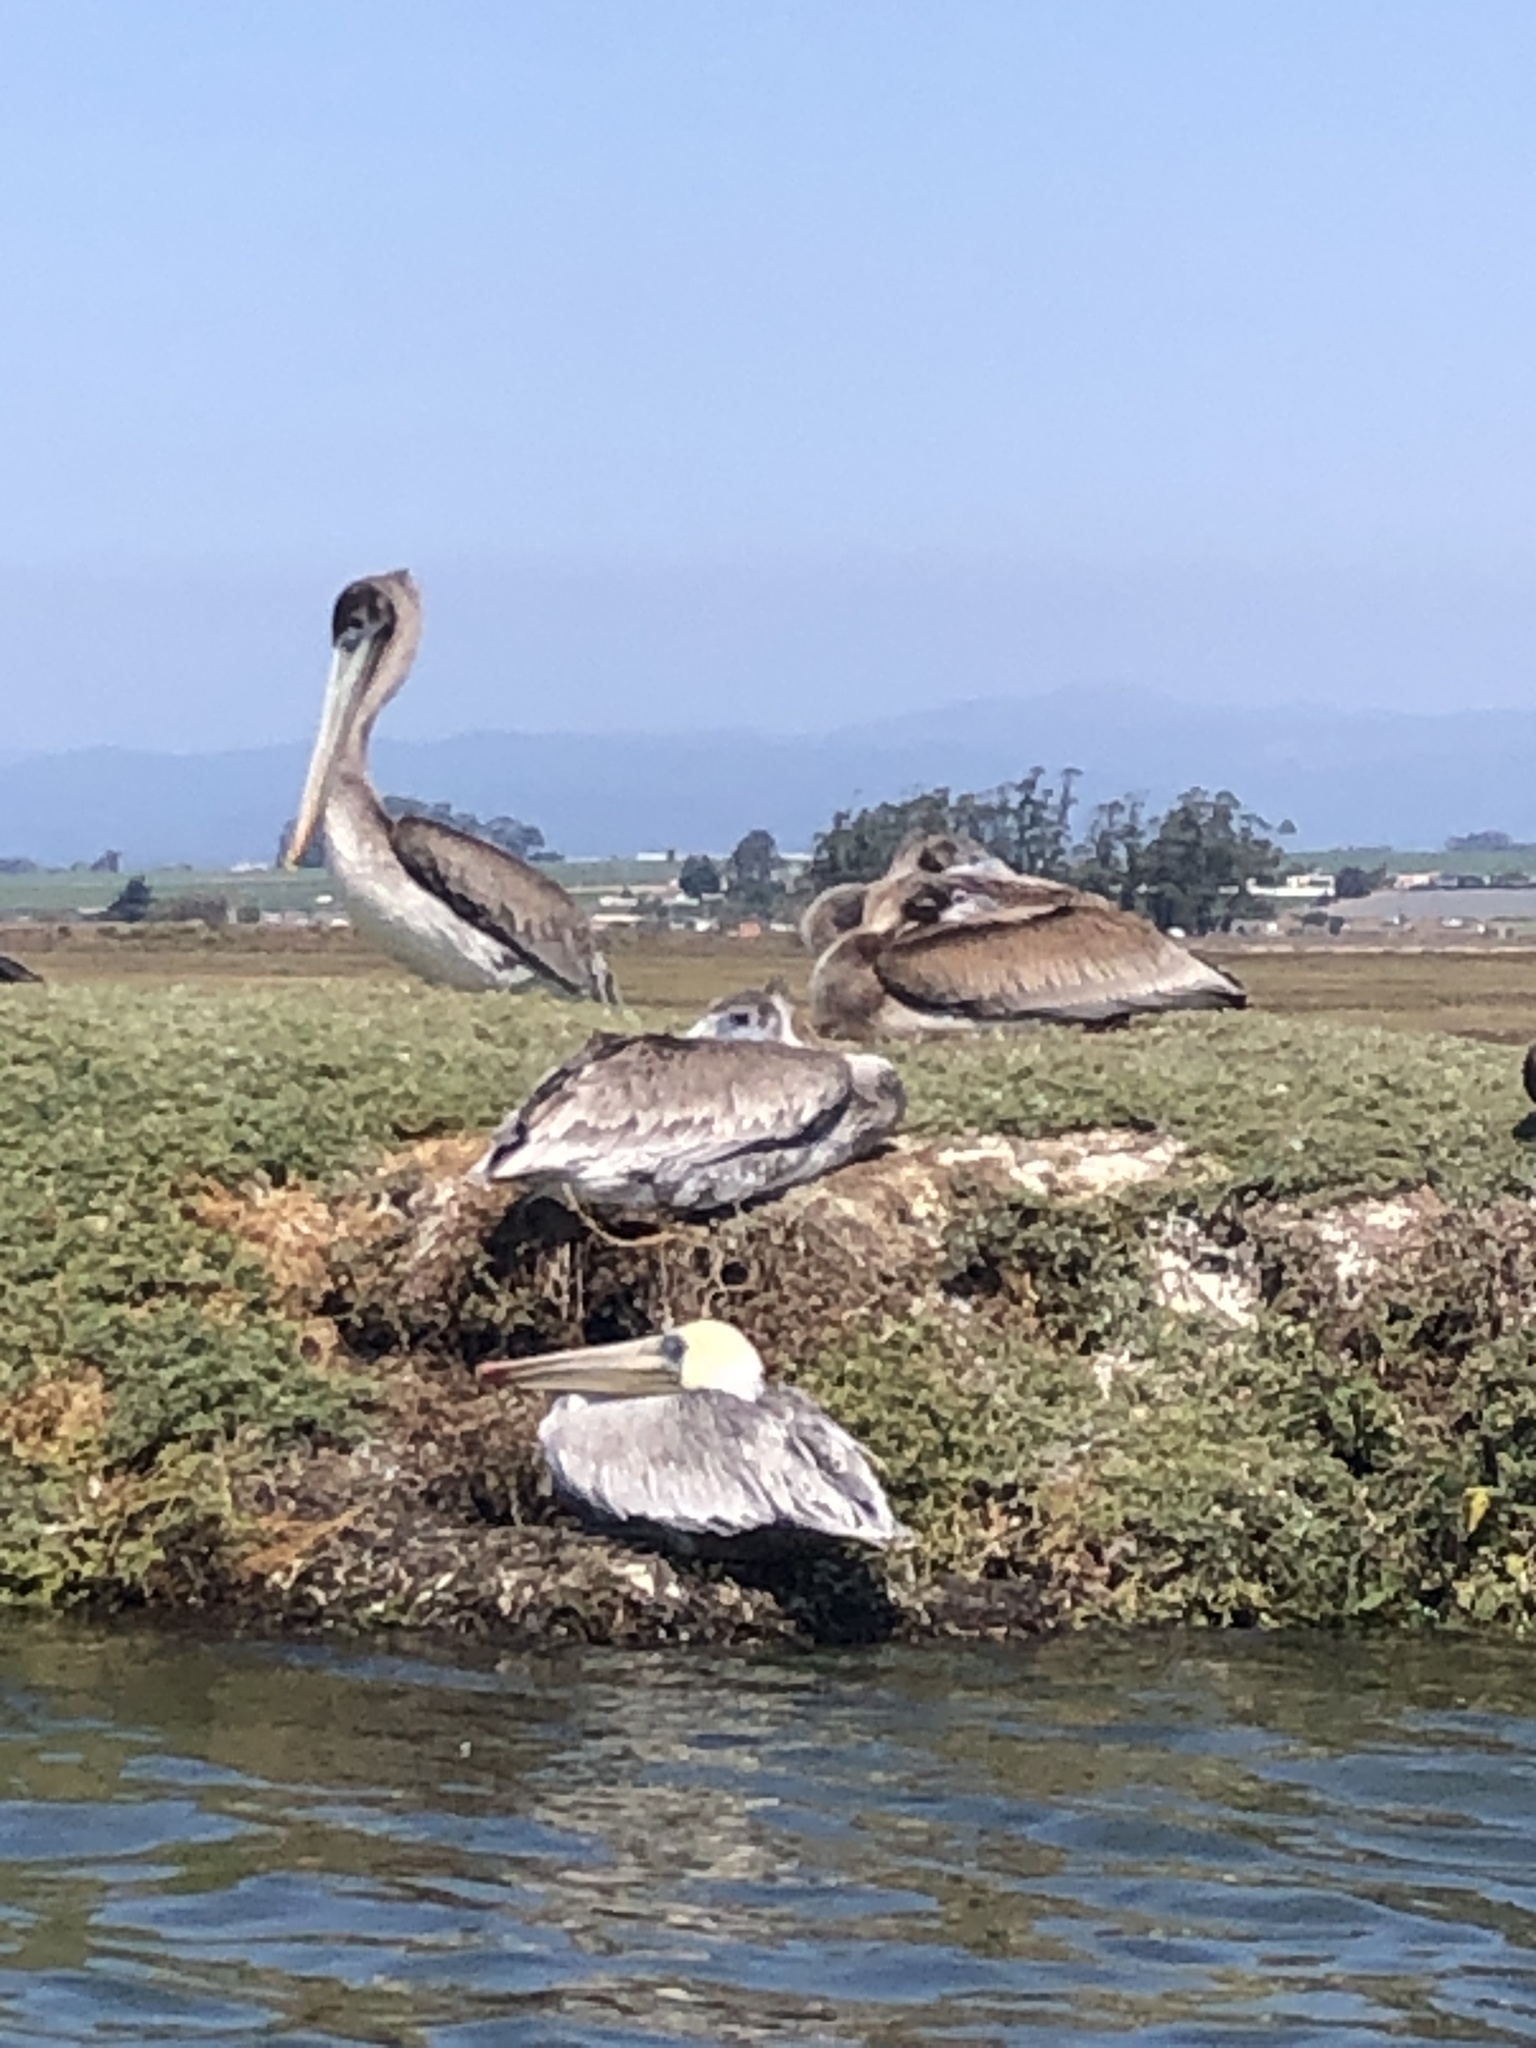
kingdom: Animalia
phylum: Chordata
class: Aves
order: Pelecaniformes
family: Pelecanidae
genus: Pelecanus
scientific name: Pelecanus occidentalis
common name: Brown pelican
